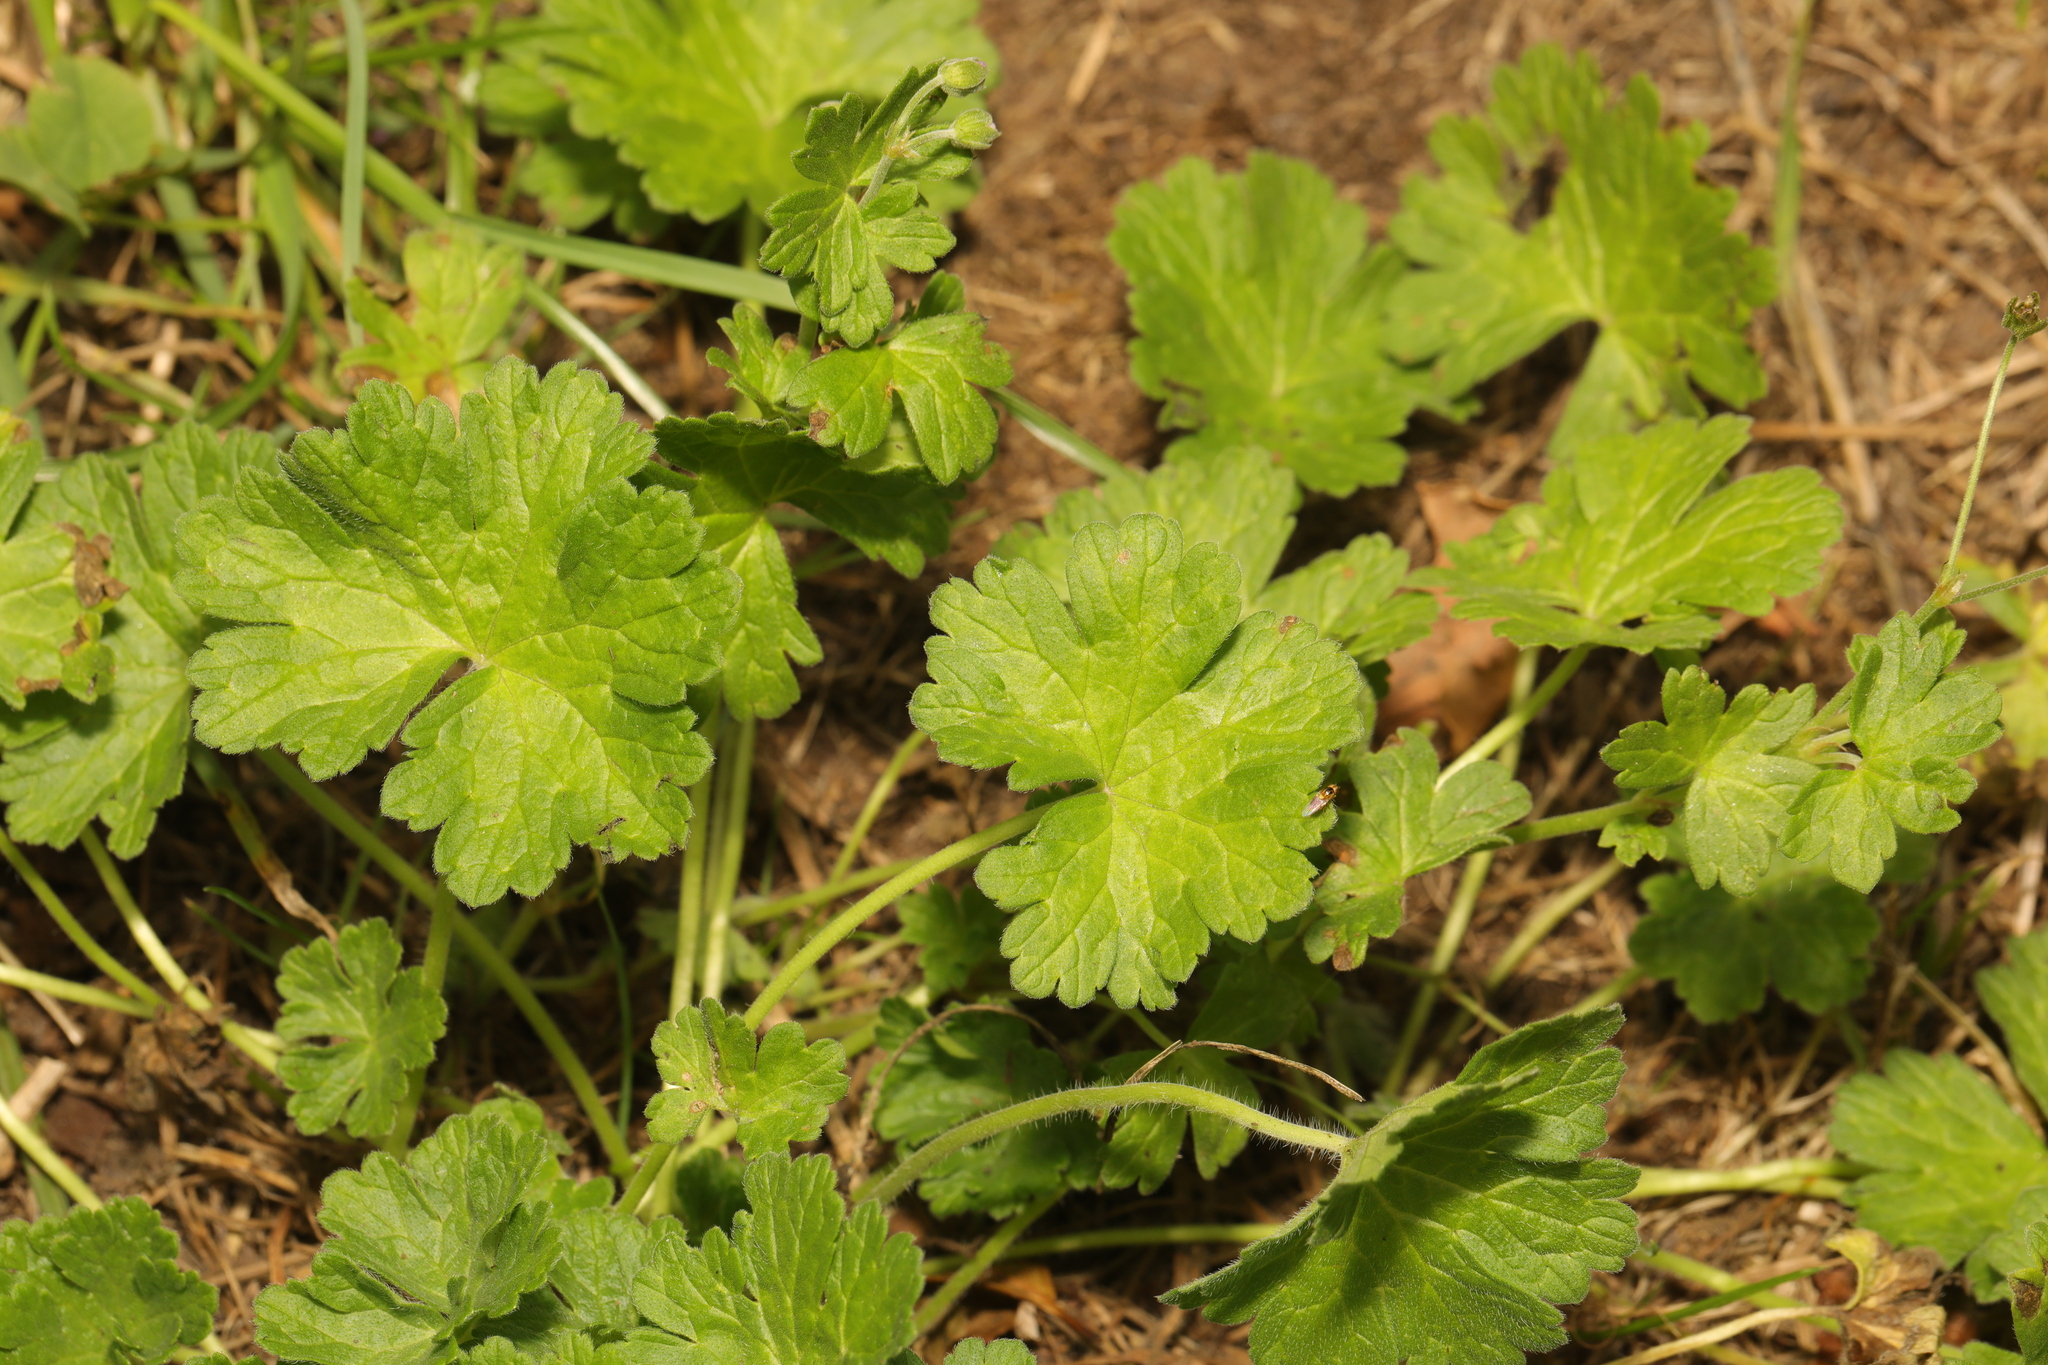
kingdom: Plantae
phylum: Tracheophyta
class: Magnoliopsida
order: Geraniales
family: Geraniaceae
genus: Geranium
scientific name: Geranium pyrenaicum
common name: Hedgerow crane's-bill
